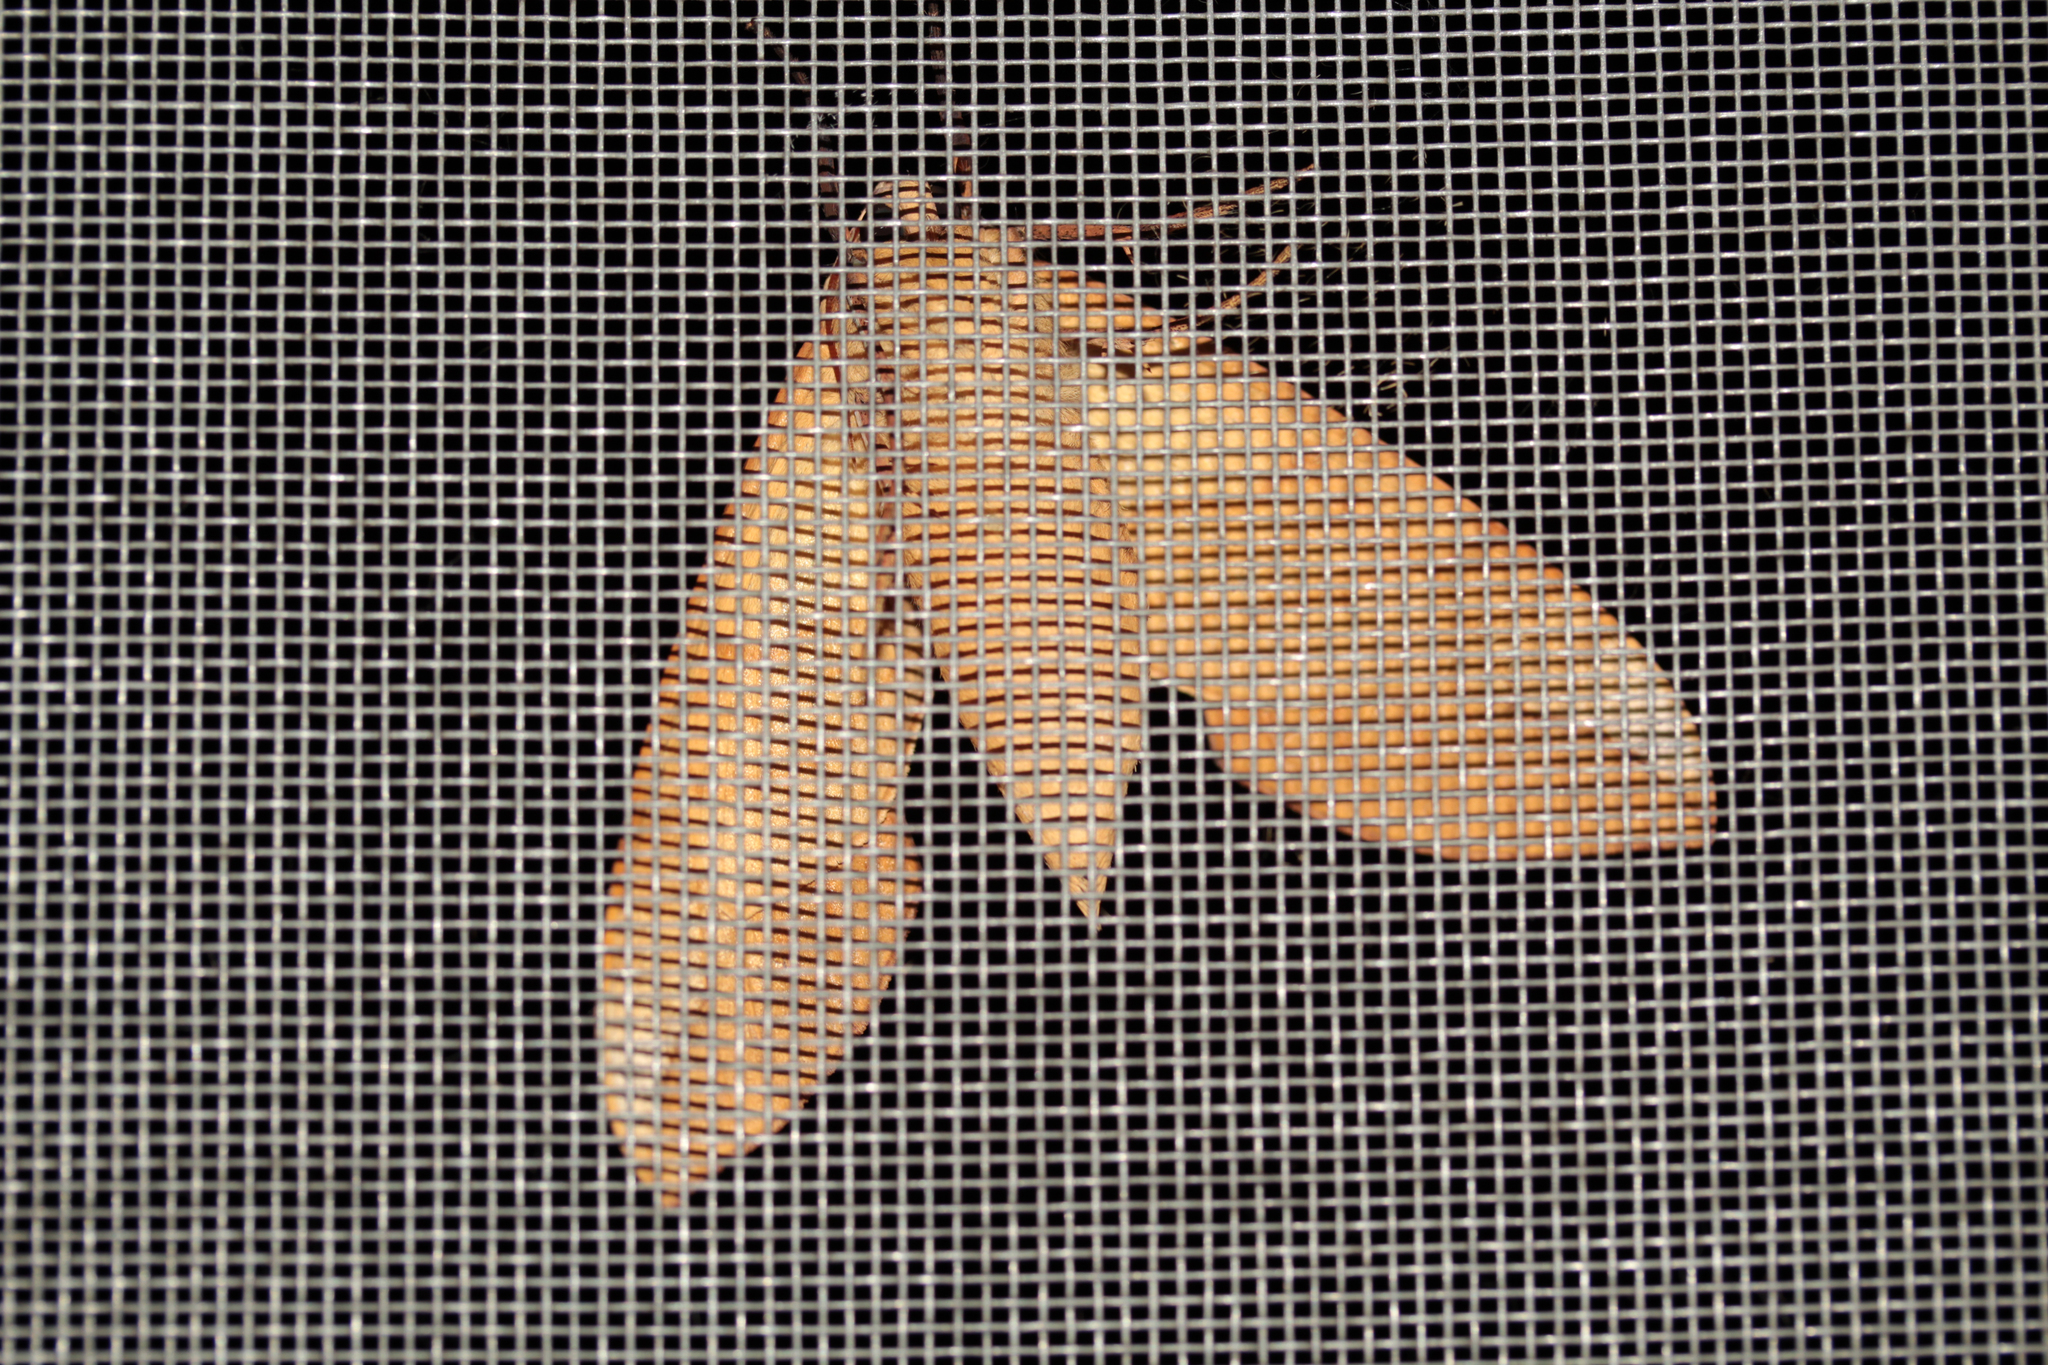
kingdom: Animalia
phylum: Arthropoda
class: Insecta
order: Lepidoptera
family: Sphingidae
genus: Clanis
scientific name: Clanis bilineata
